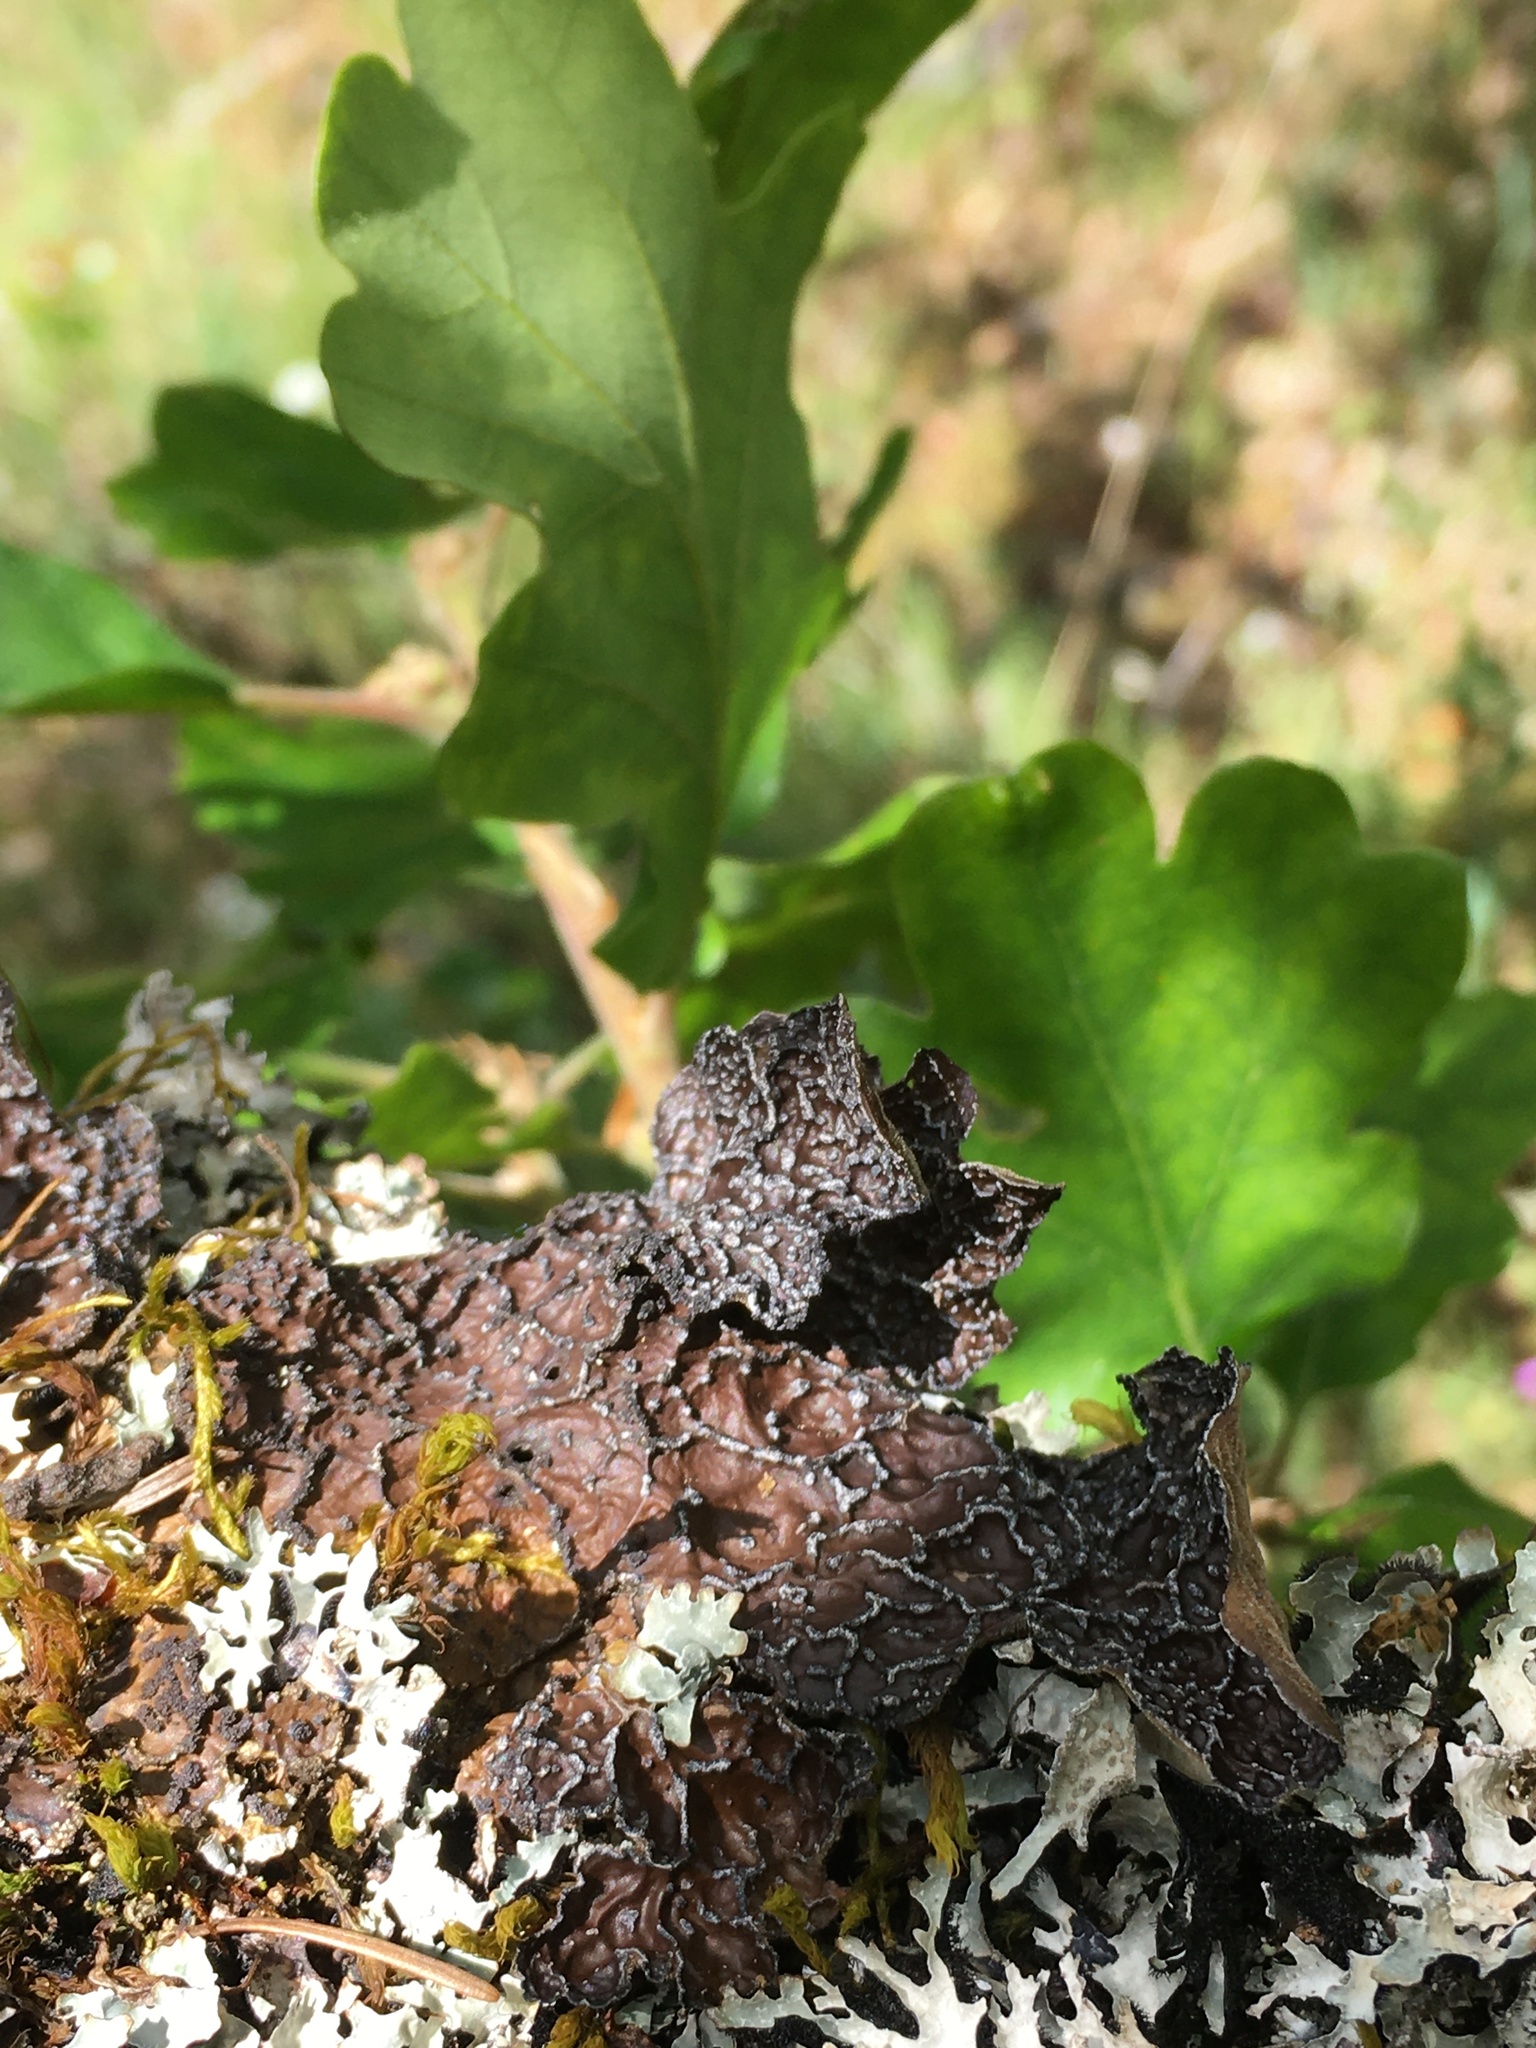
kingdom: Fungi
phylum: Ascomycota
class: Lecanoromycetes
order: Peltigerales
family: Lobariaceae
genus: Lobaria
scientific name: Lobaria anomala
